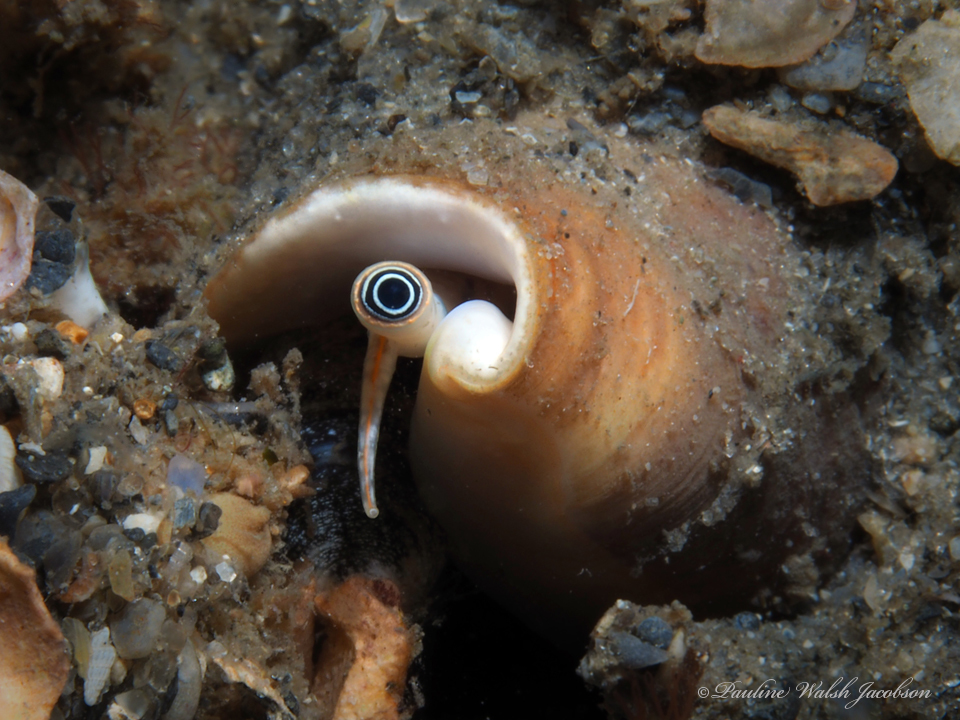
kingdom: Animalia
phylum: Mollusca
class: Gastropoda
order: Littorinimorpha
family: Strombidae
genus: Macrostrombus
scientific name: Macrostrombus costatus
